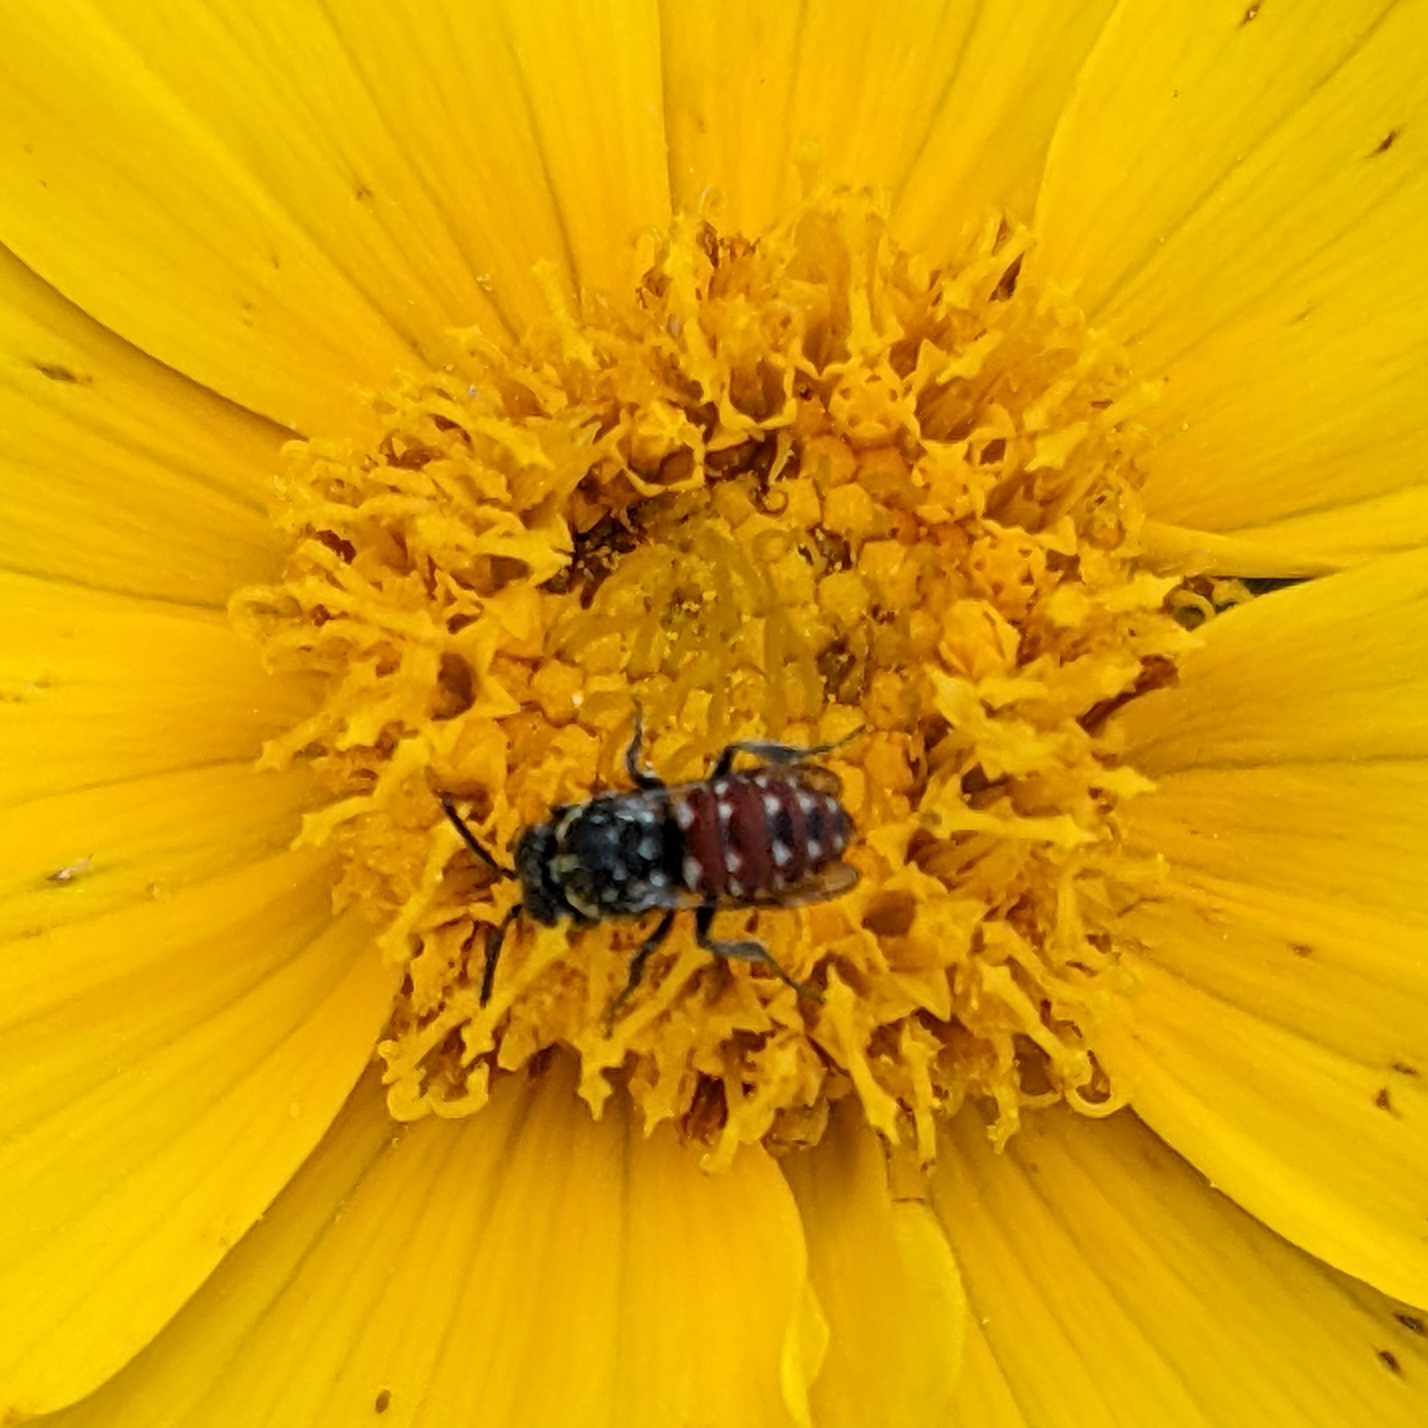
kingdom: Animalia
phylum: Arthropoda
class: Insecta
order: Hymenoptera
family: Apidae
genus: Holcopasites
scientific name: Holcopasites calliopsidis
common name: Calliopsis cuckoo nomad bee
